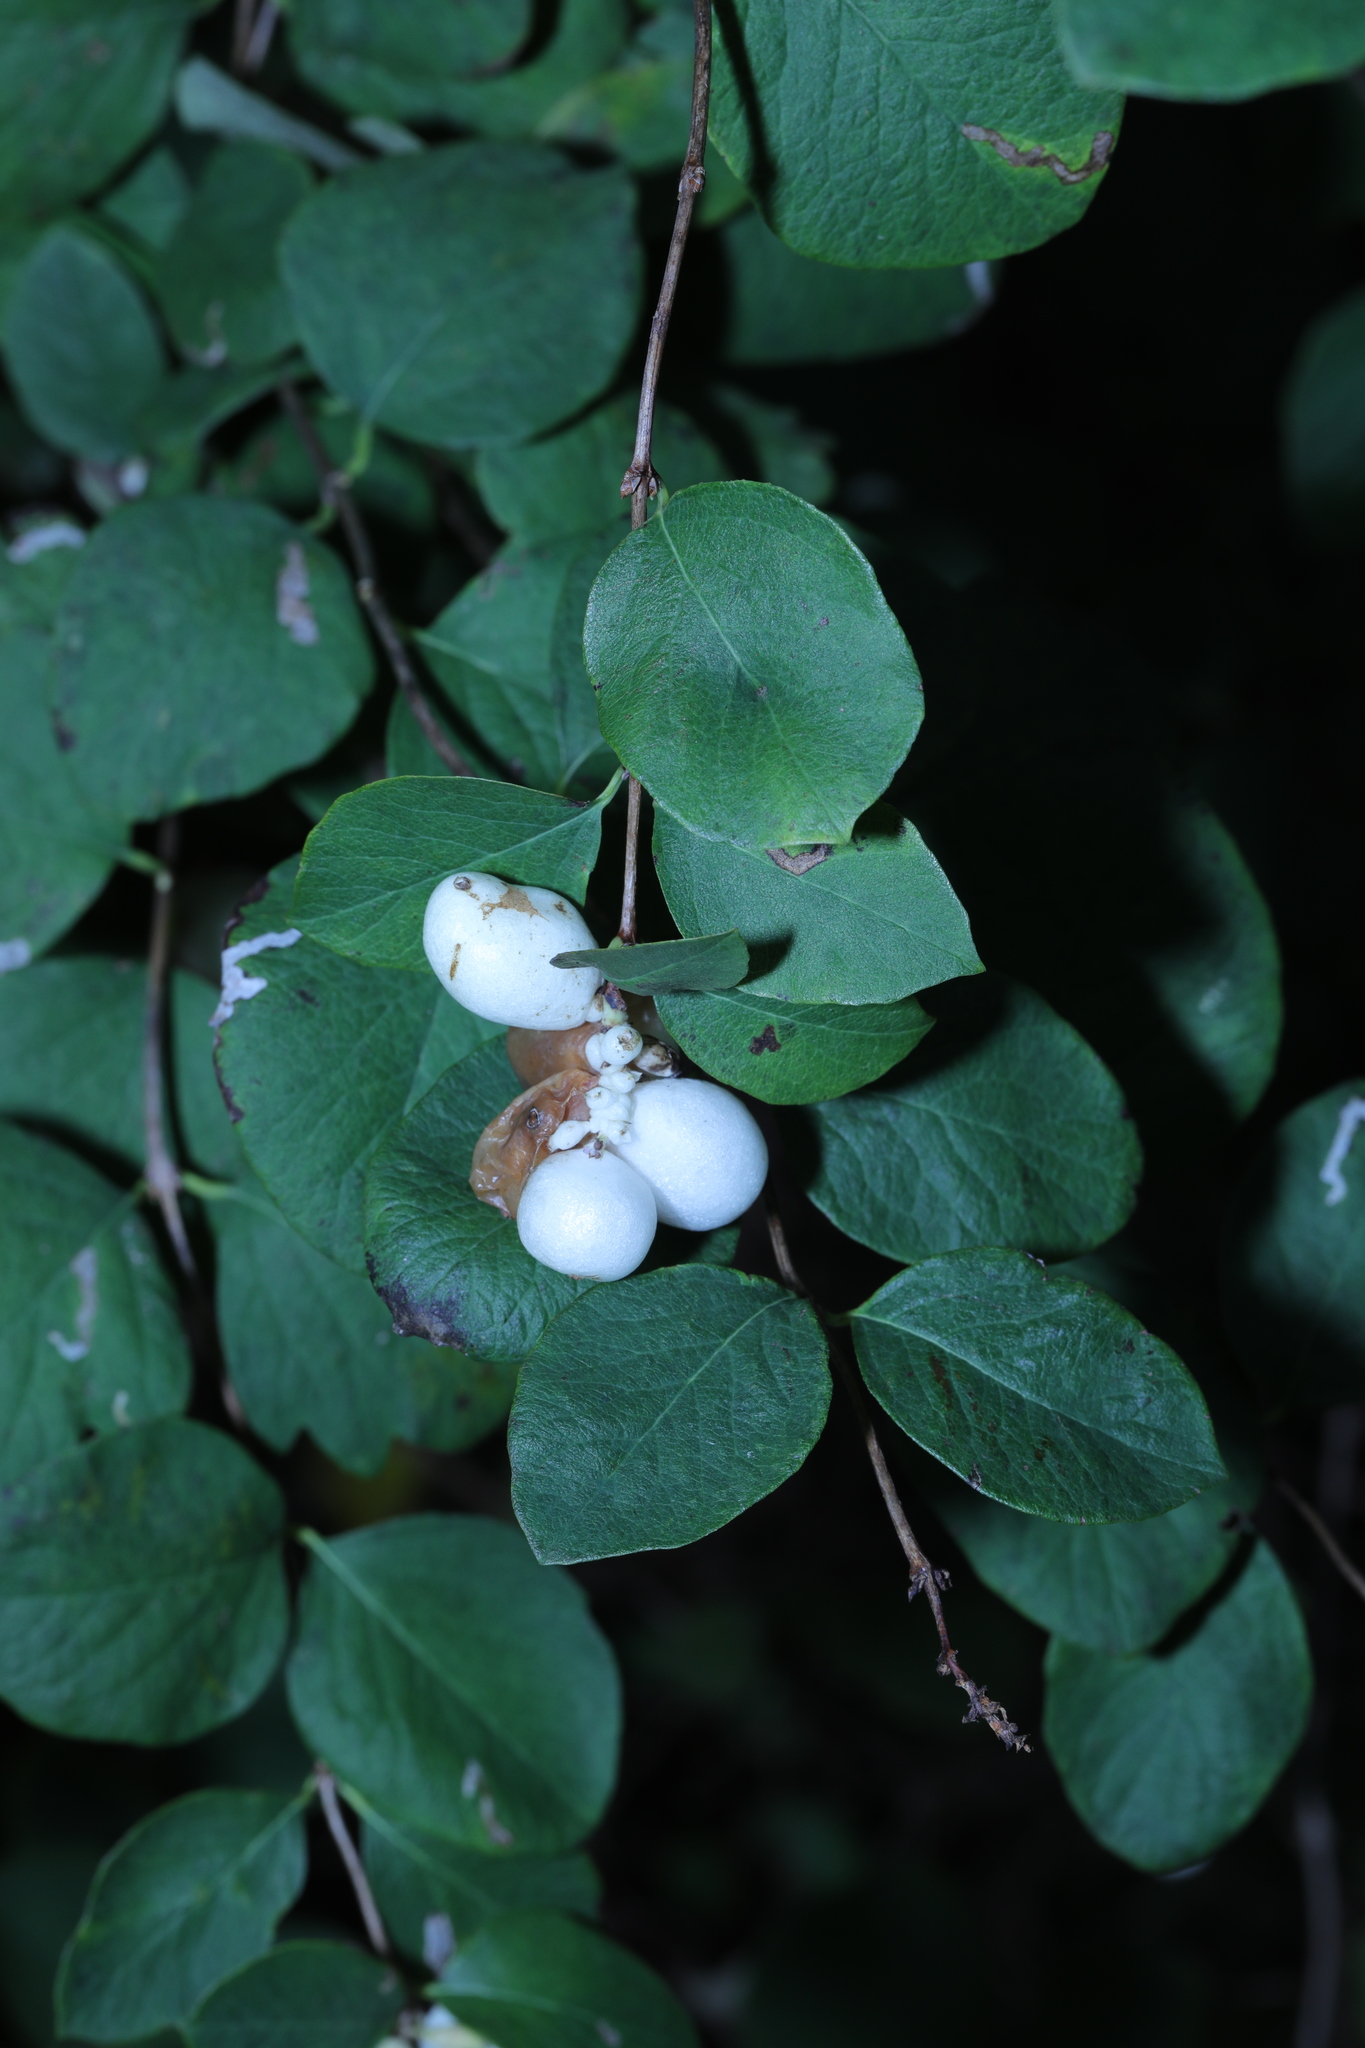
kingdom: Plantae
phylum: Tracheophyta
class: Magnoliopsida
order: Dipsacales
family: Caprifoliaceae
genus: Symphoricarpos
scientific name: Symphoricarpos albus
